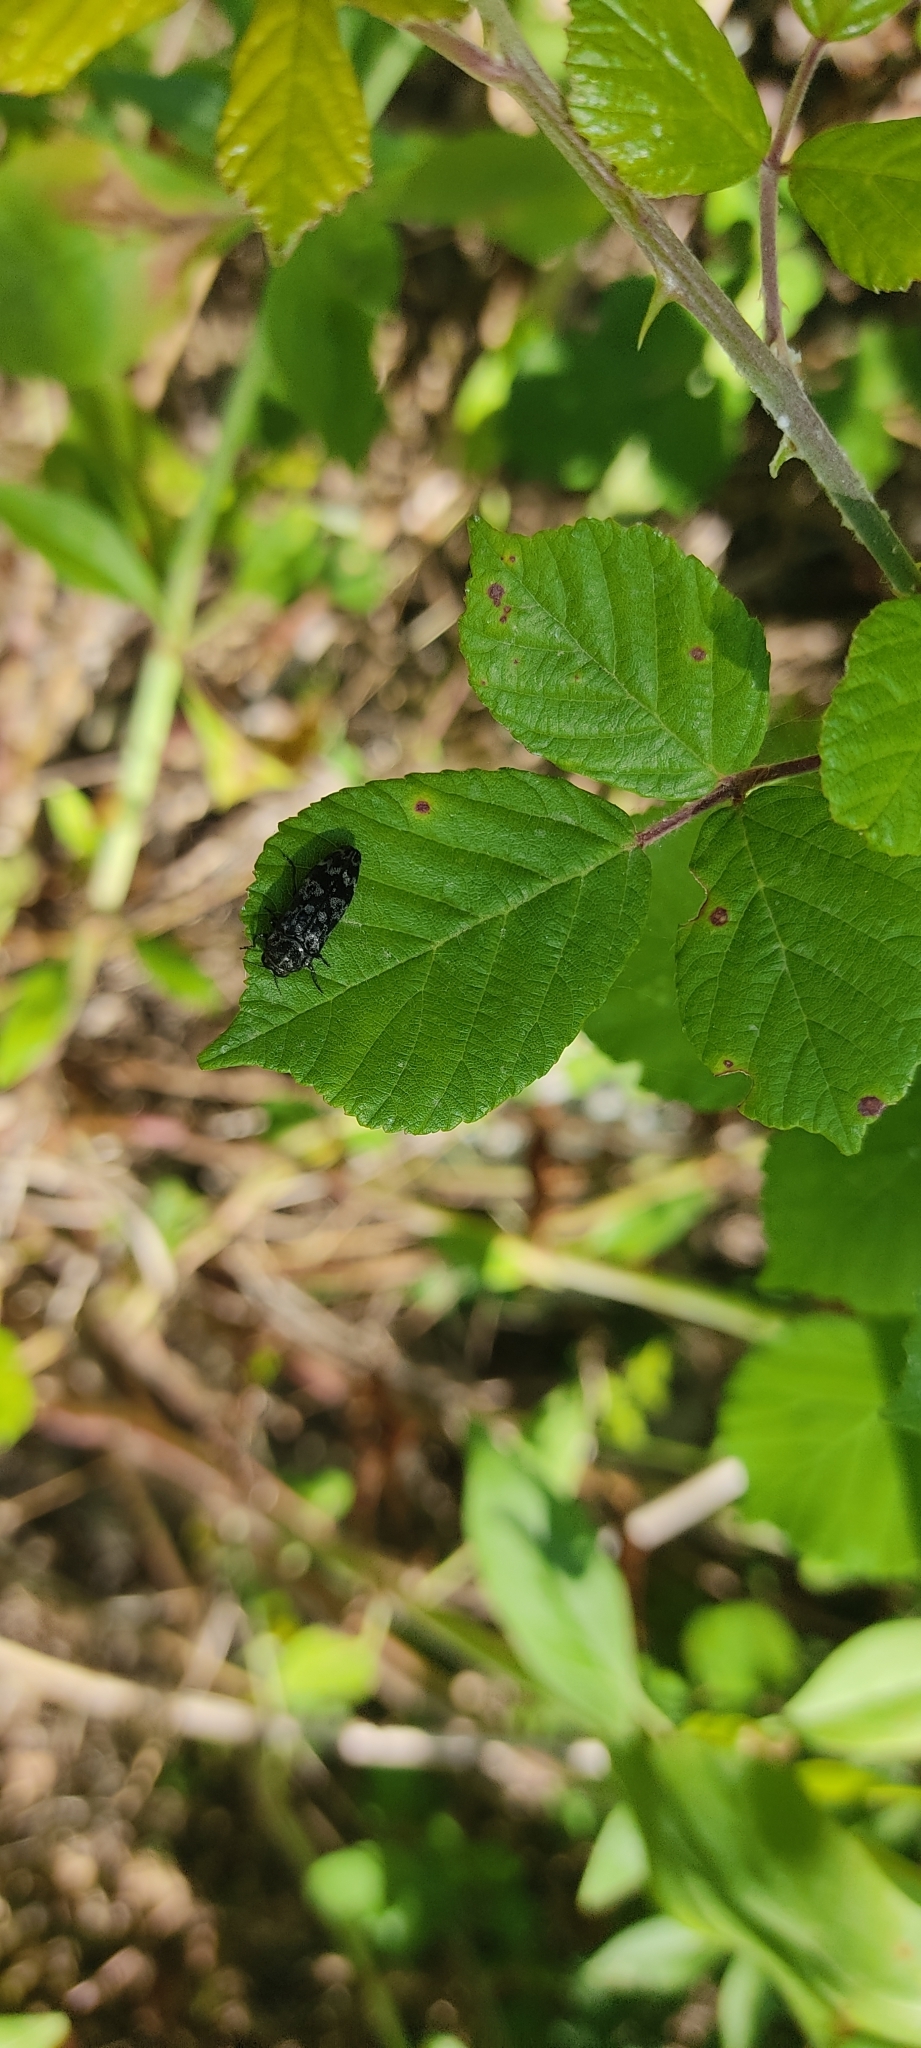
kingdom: Animalia
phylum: Arthropoda
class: Insecta
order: Coleoptera
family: Buprestidae
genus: Coraebus
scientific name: Coraebus rubi
